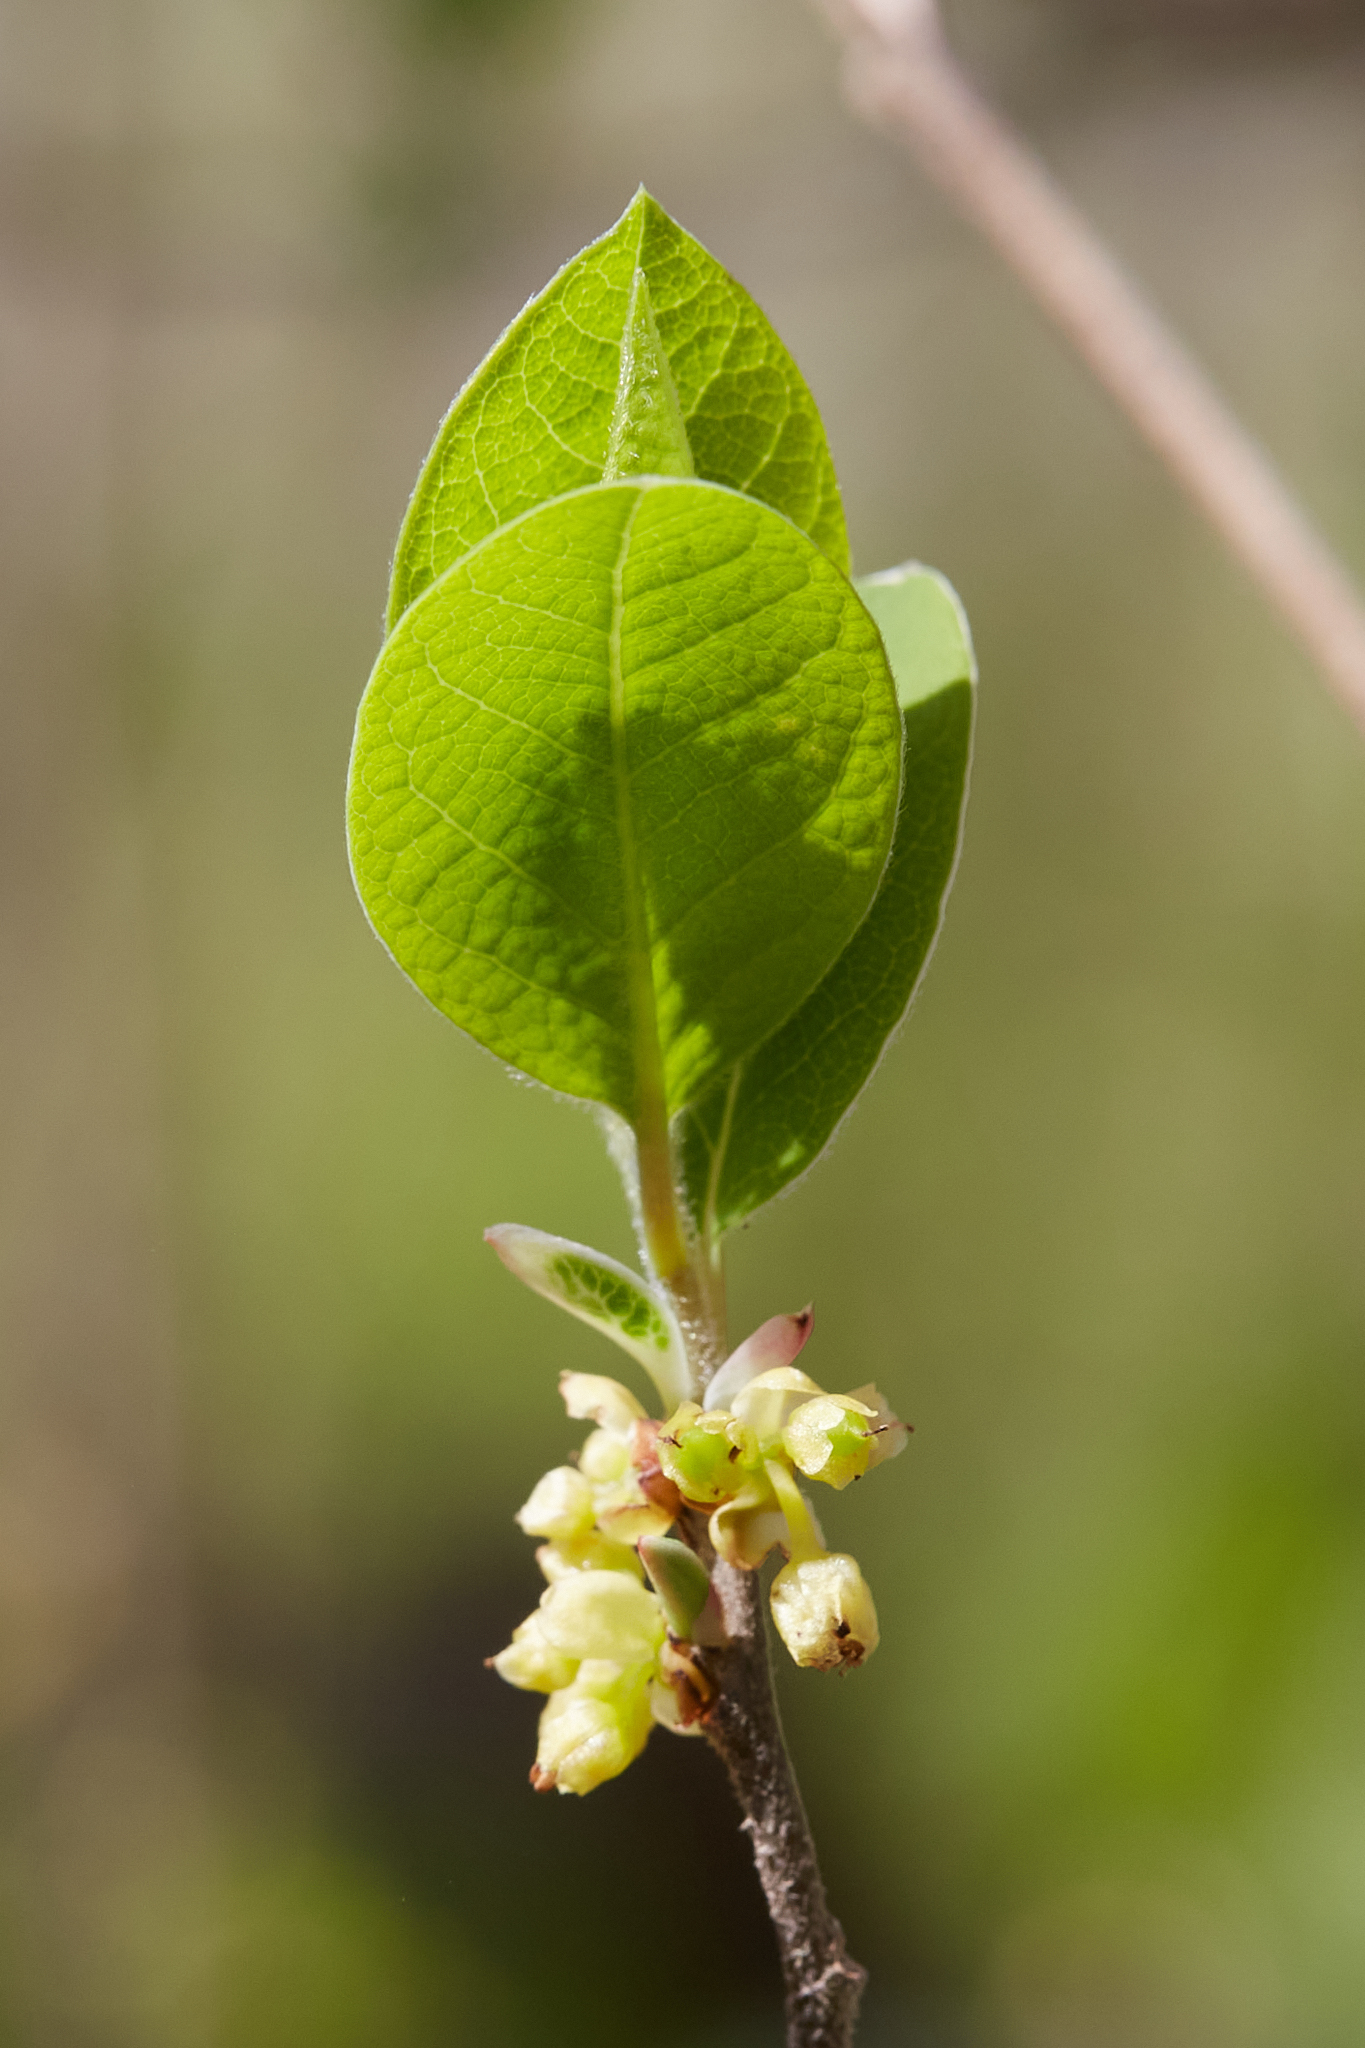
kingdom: Plantae
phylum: Tracheophyta
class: Magnoliopsida
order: Laurales
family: Lauraceae
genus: Sassafras
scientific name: Sassafras albidum
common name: Sassafras
